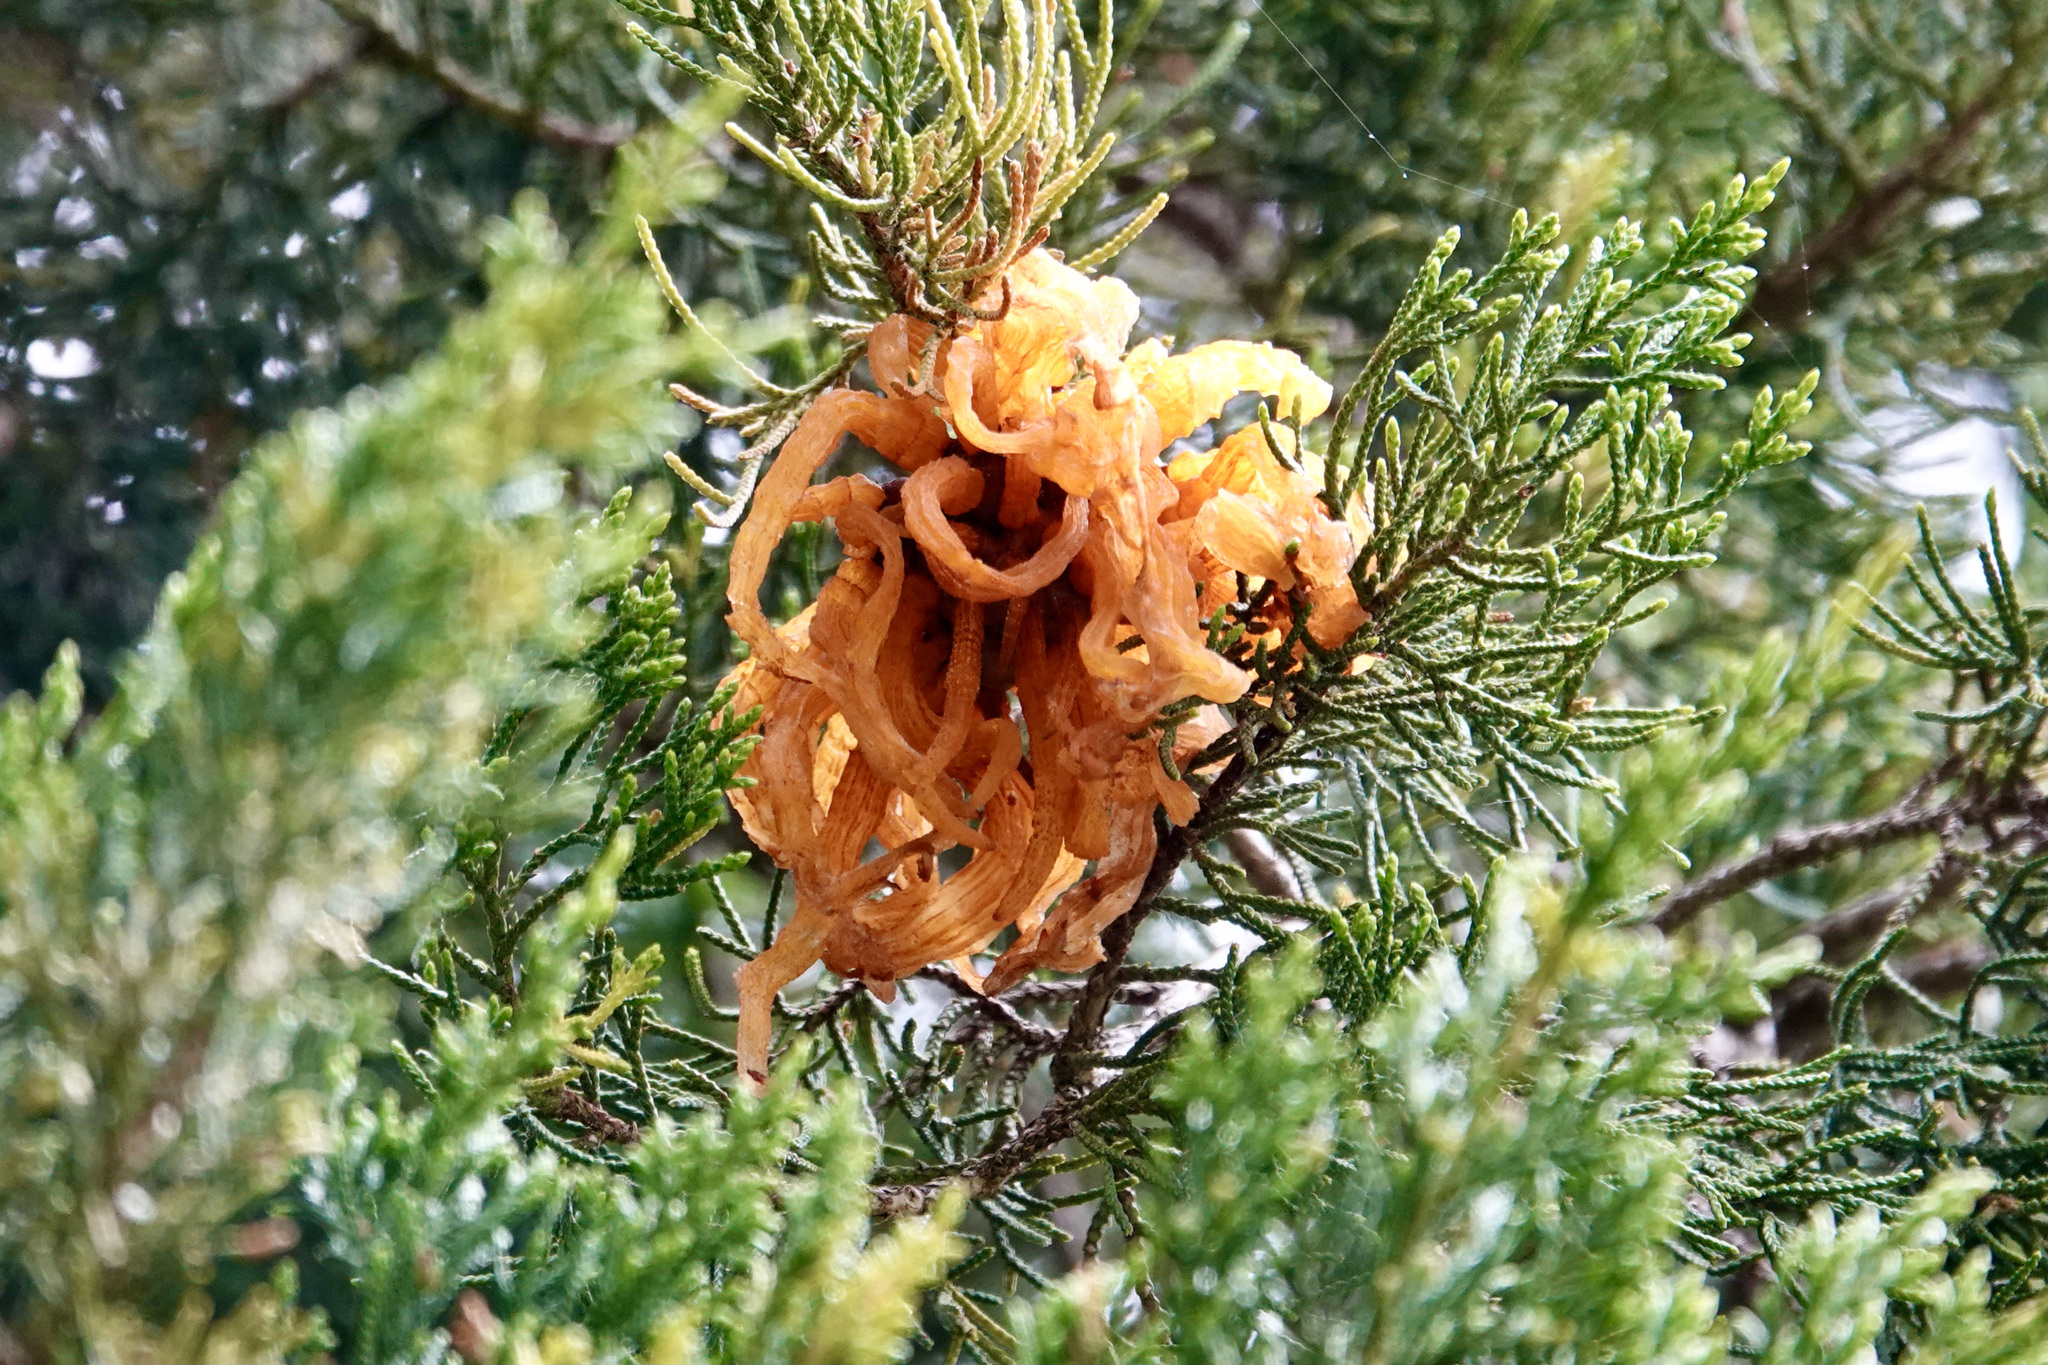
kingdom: Fungi
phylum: Basidiomycota
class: Pucciniomycetes
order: Pucciniales
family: Gymnosporangiaceae
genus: Gymnosporangium
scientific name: Gymnosporangium juniperi-virginianae
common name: Juniper-apple rust
